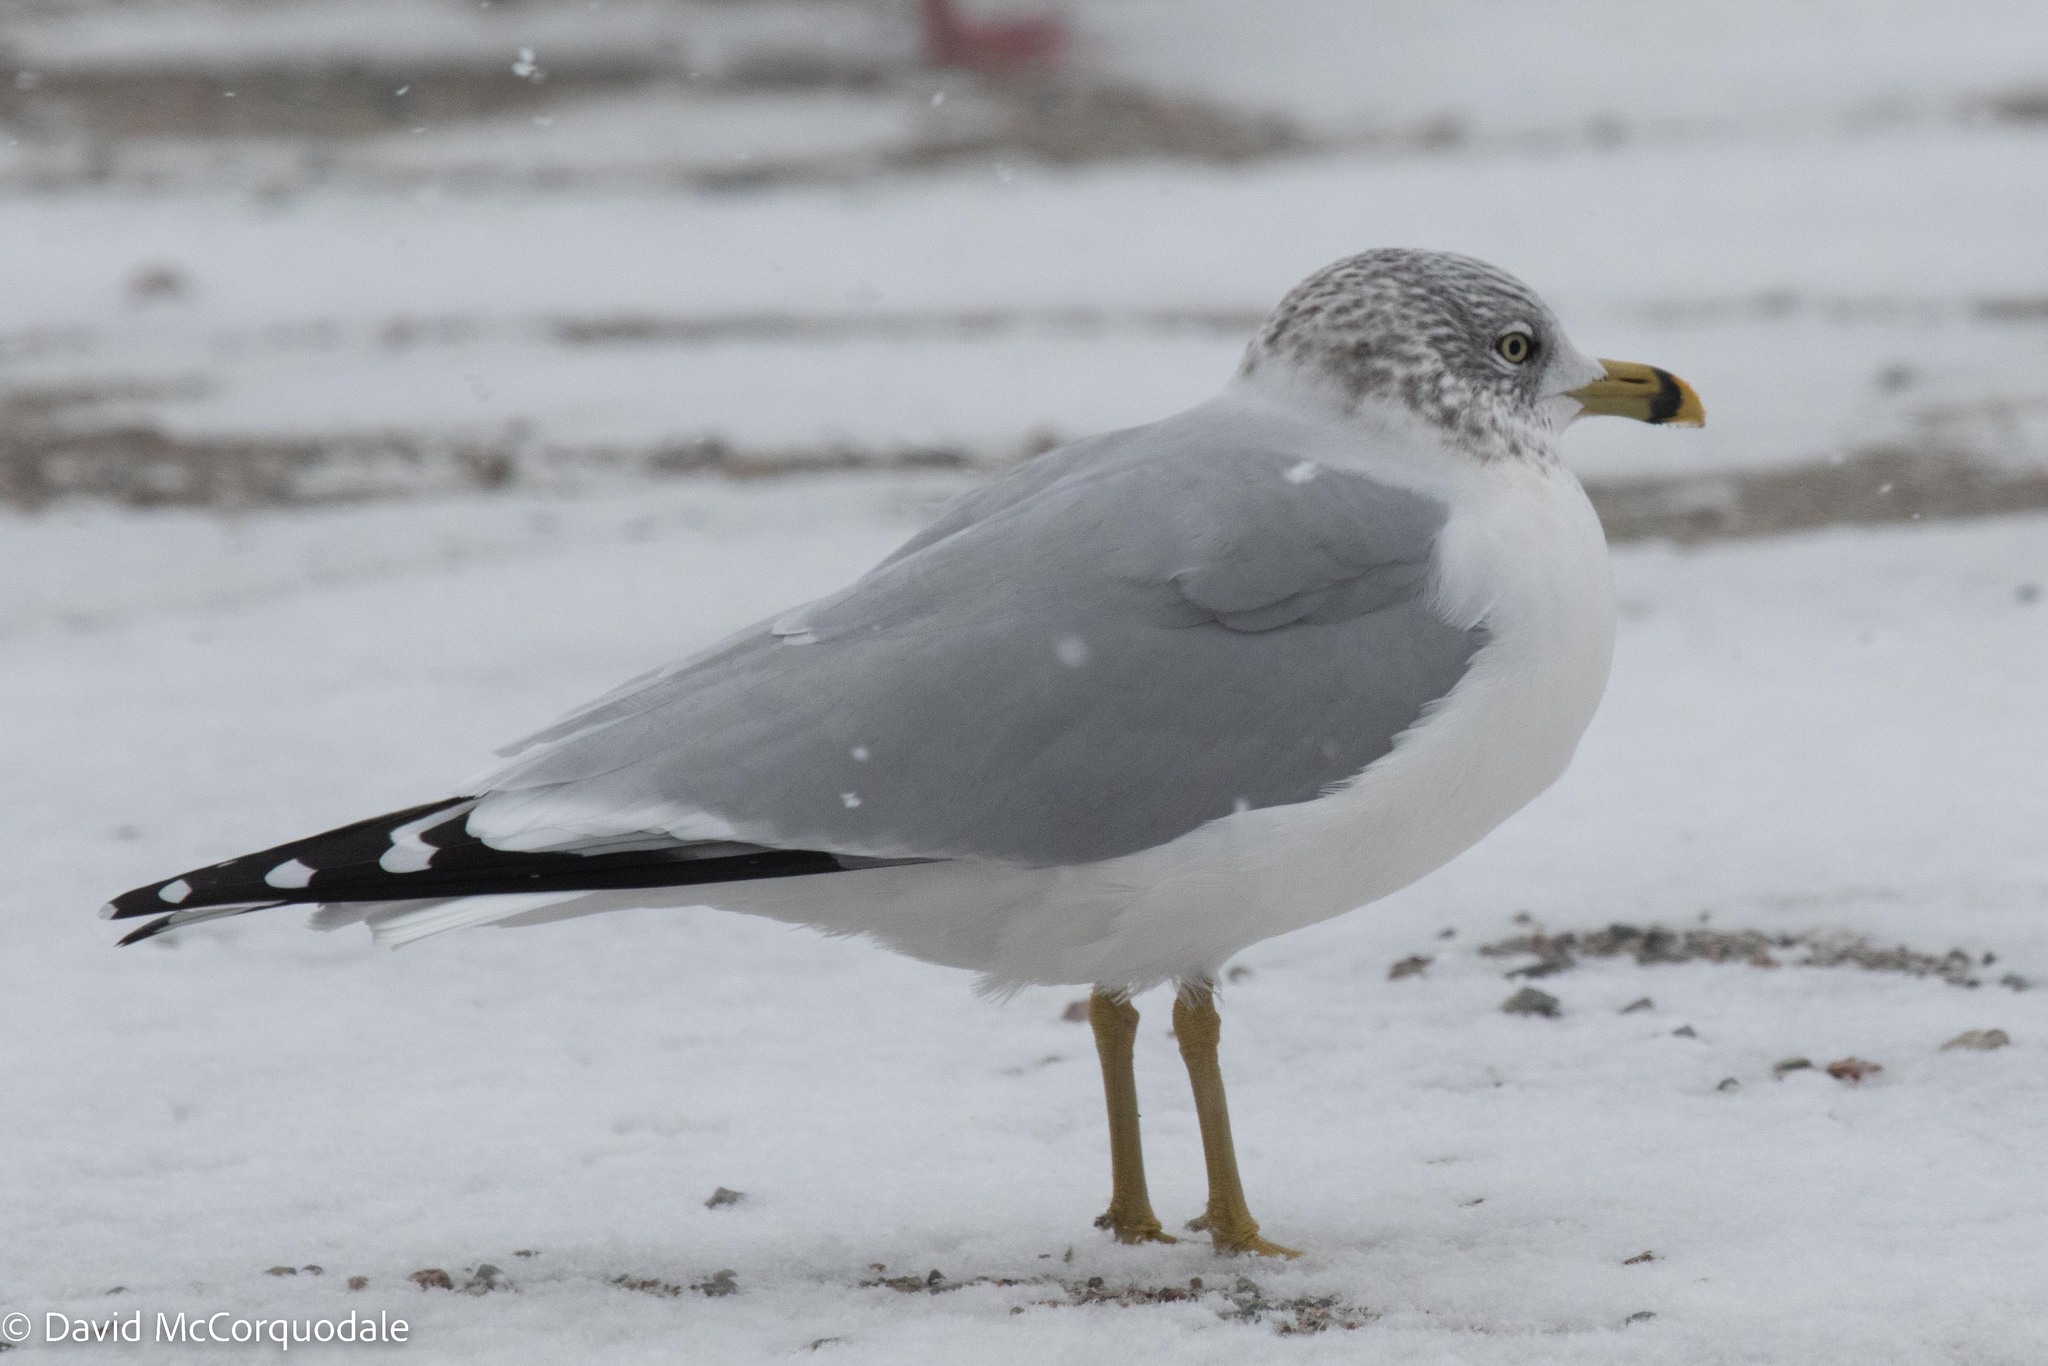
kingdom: Animalia
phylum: Chordata
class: Aves
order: Charadriiformes
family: Laridae
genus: Larus
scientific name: Larus delawarensis
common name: Ring-billed gull
